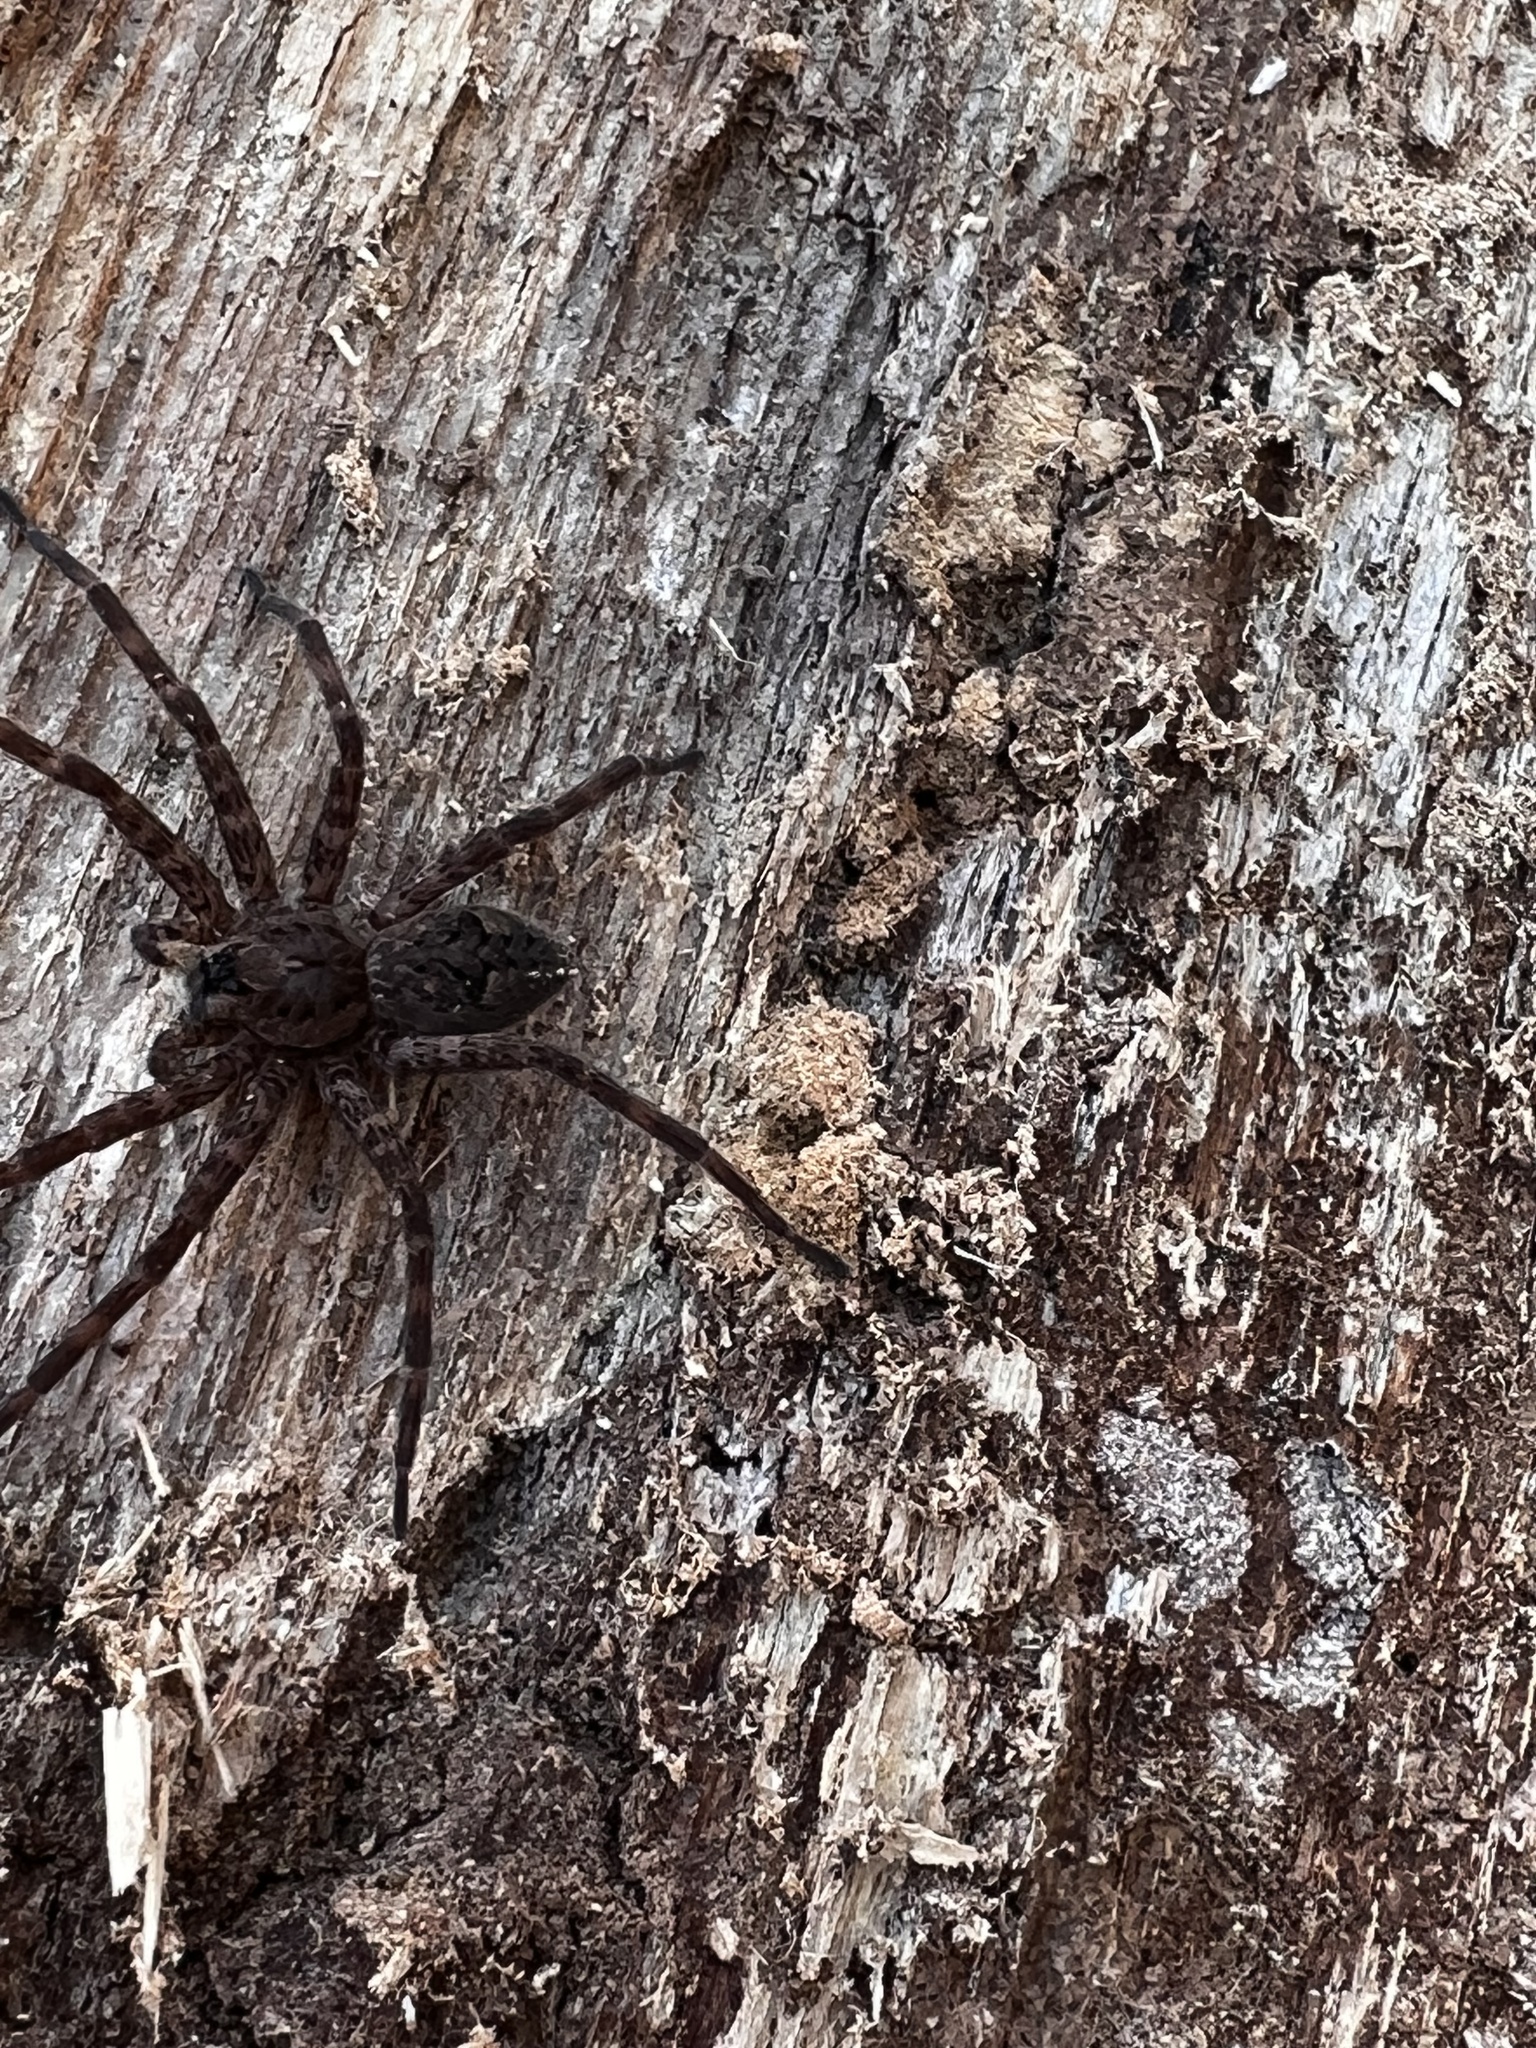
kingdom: Animalia
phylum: Arthropoda
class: Arachnida
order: Araneae
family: Pisauridae
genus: Dolomedes
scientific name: Dolomedes tenebrosus
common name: Dark fishing spider
